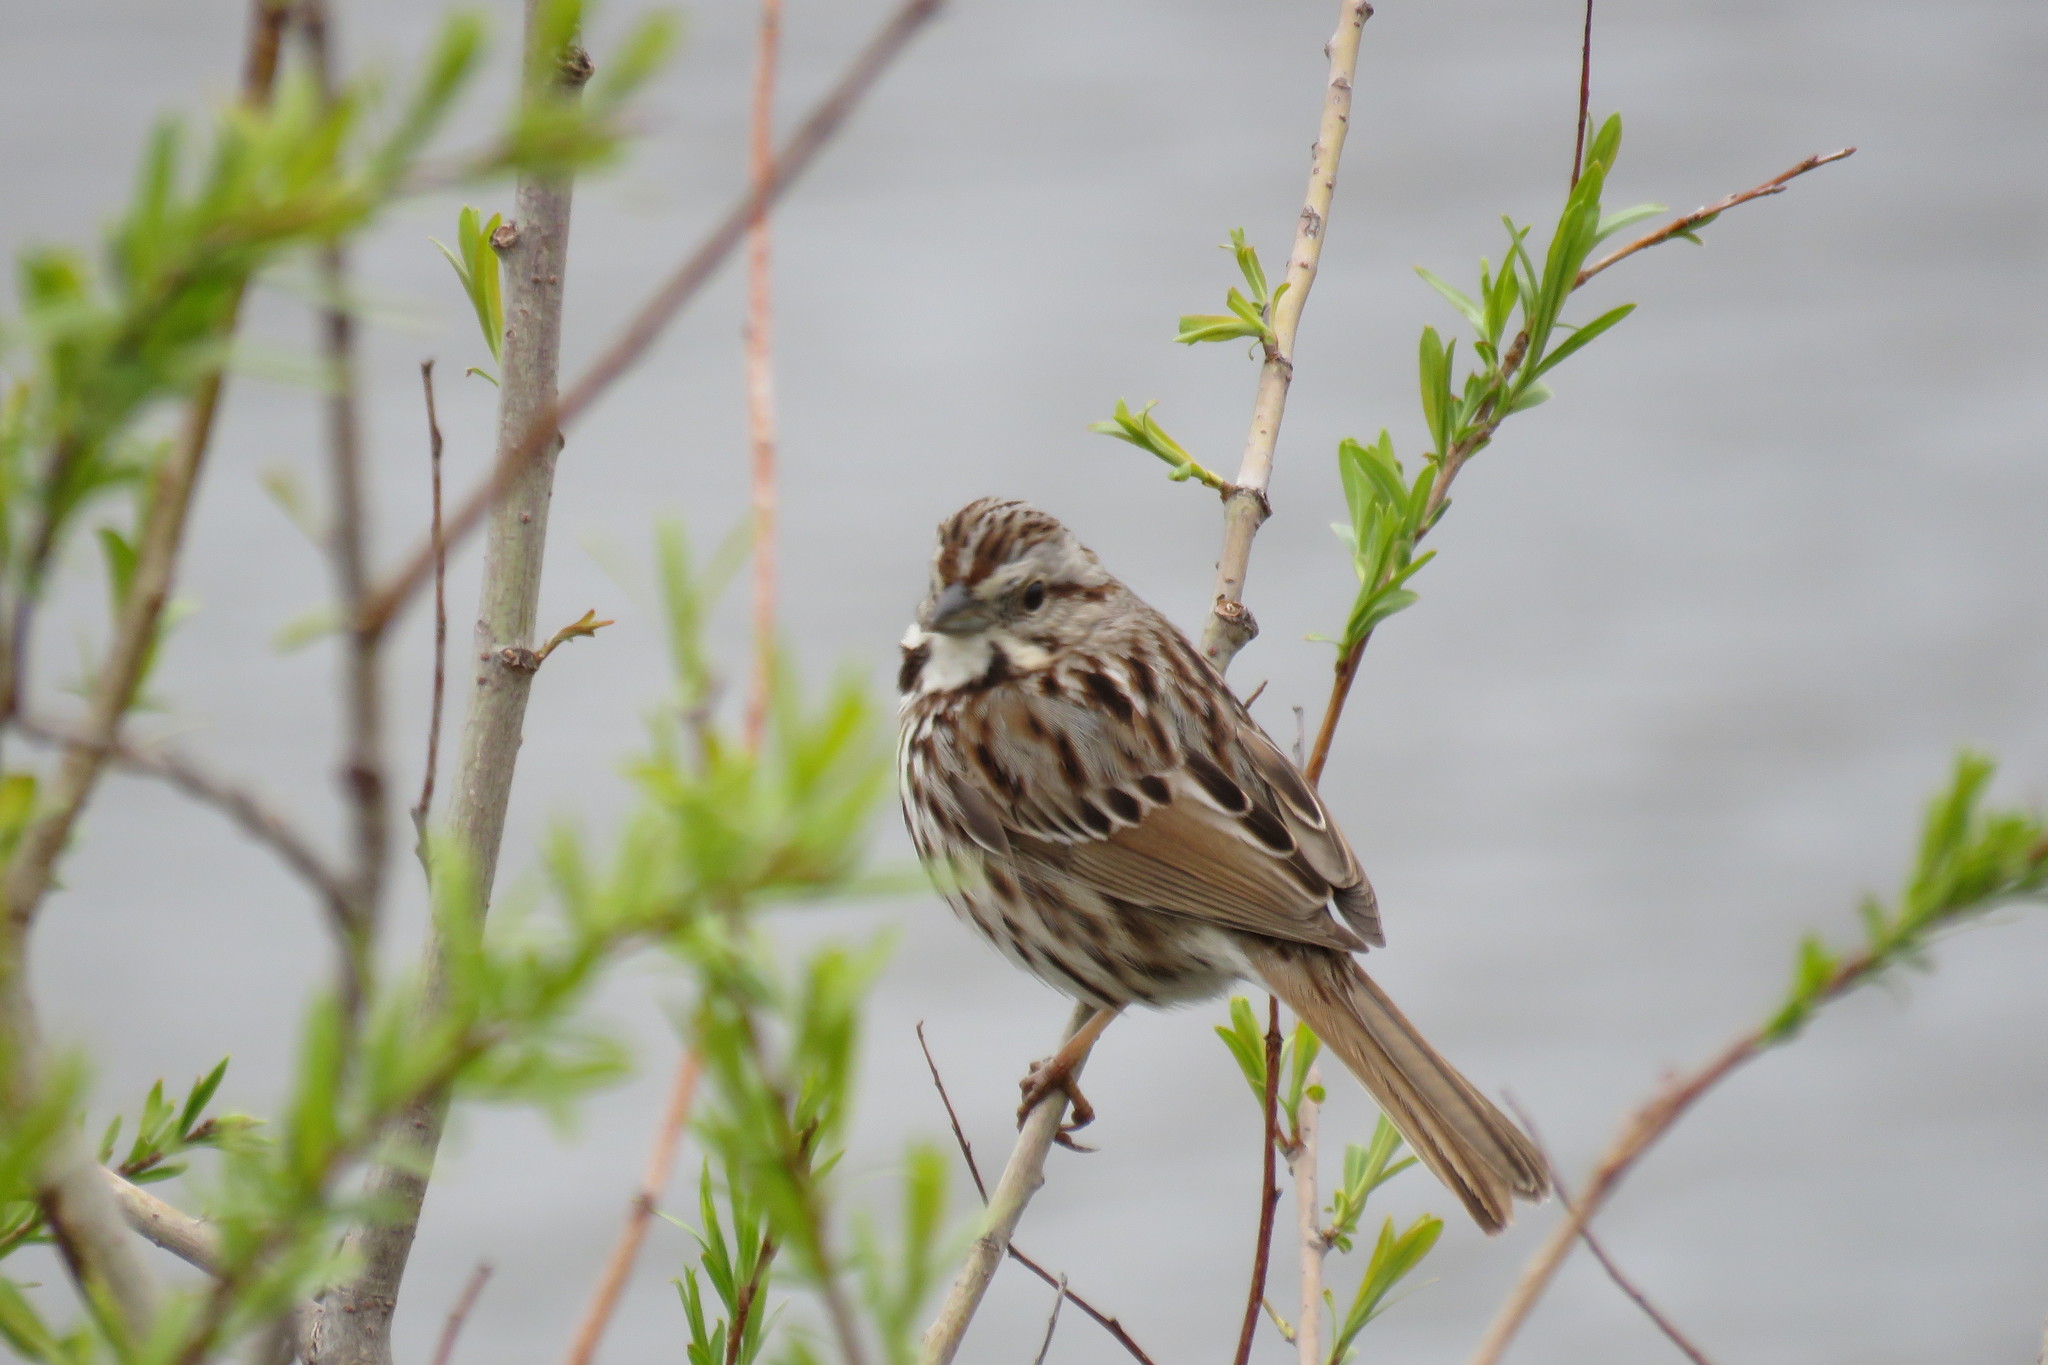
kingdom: Animalia
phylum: Chordata
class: Aves
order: Passeriformes
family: Passerellidae
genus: Melospiza
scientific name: Melospiza melodia
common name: Song sparrow
